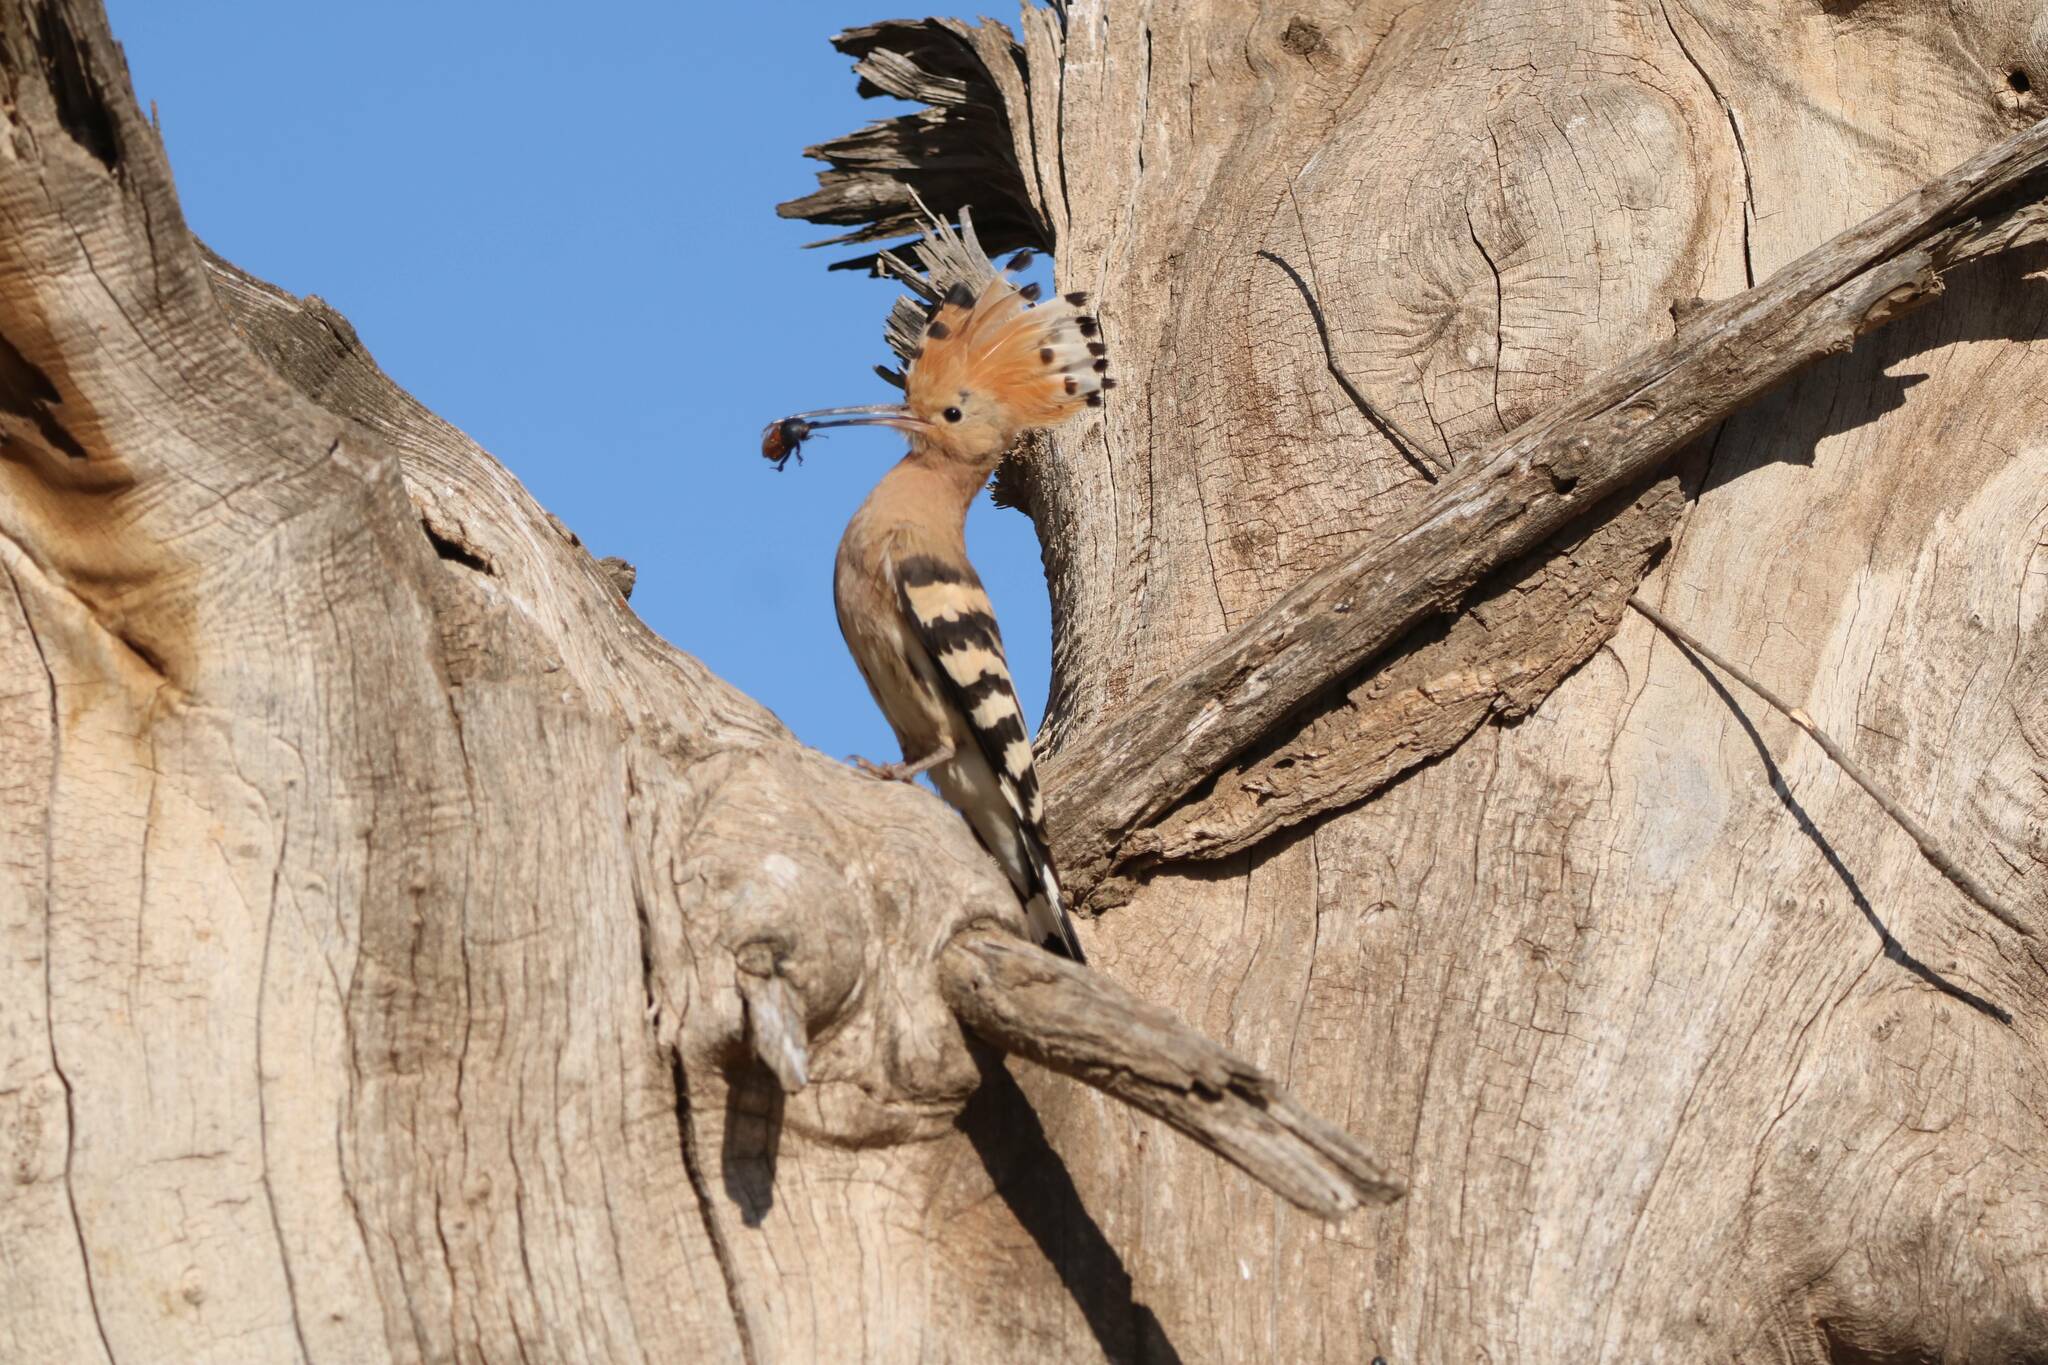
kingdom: Animalia
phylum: Chordata
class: Aves
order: Bucerotiformes
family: Upupidae
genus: Upupa
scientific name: Upupa epops
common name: Eurasian hoopoe
